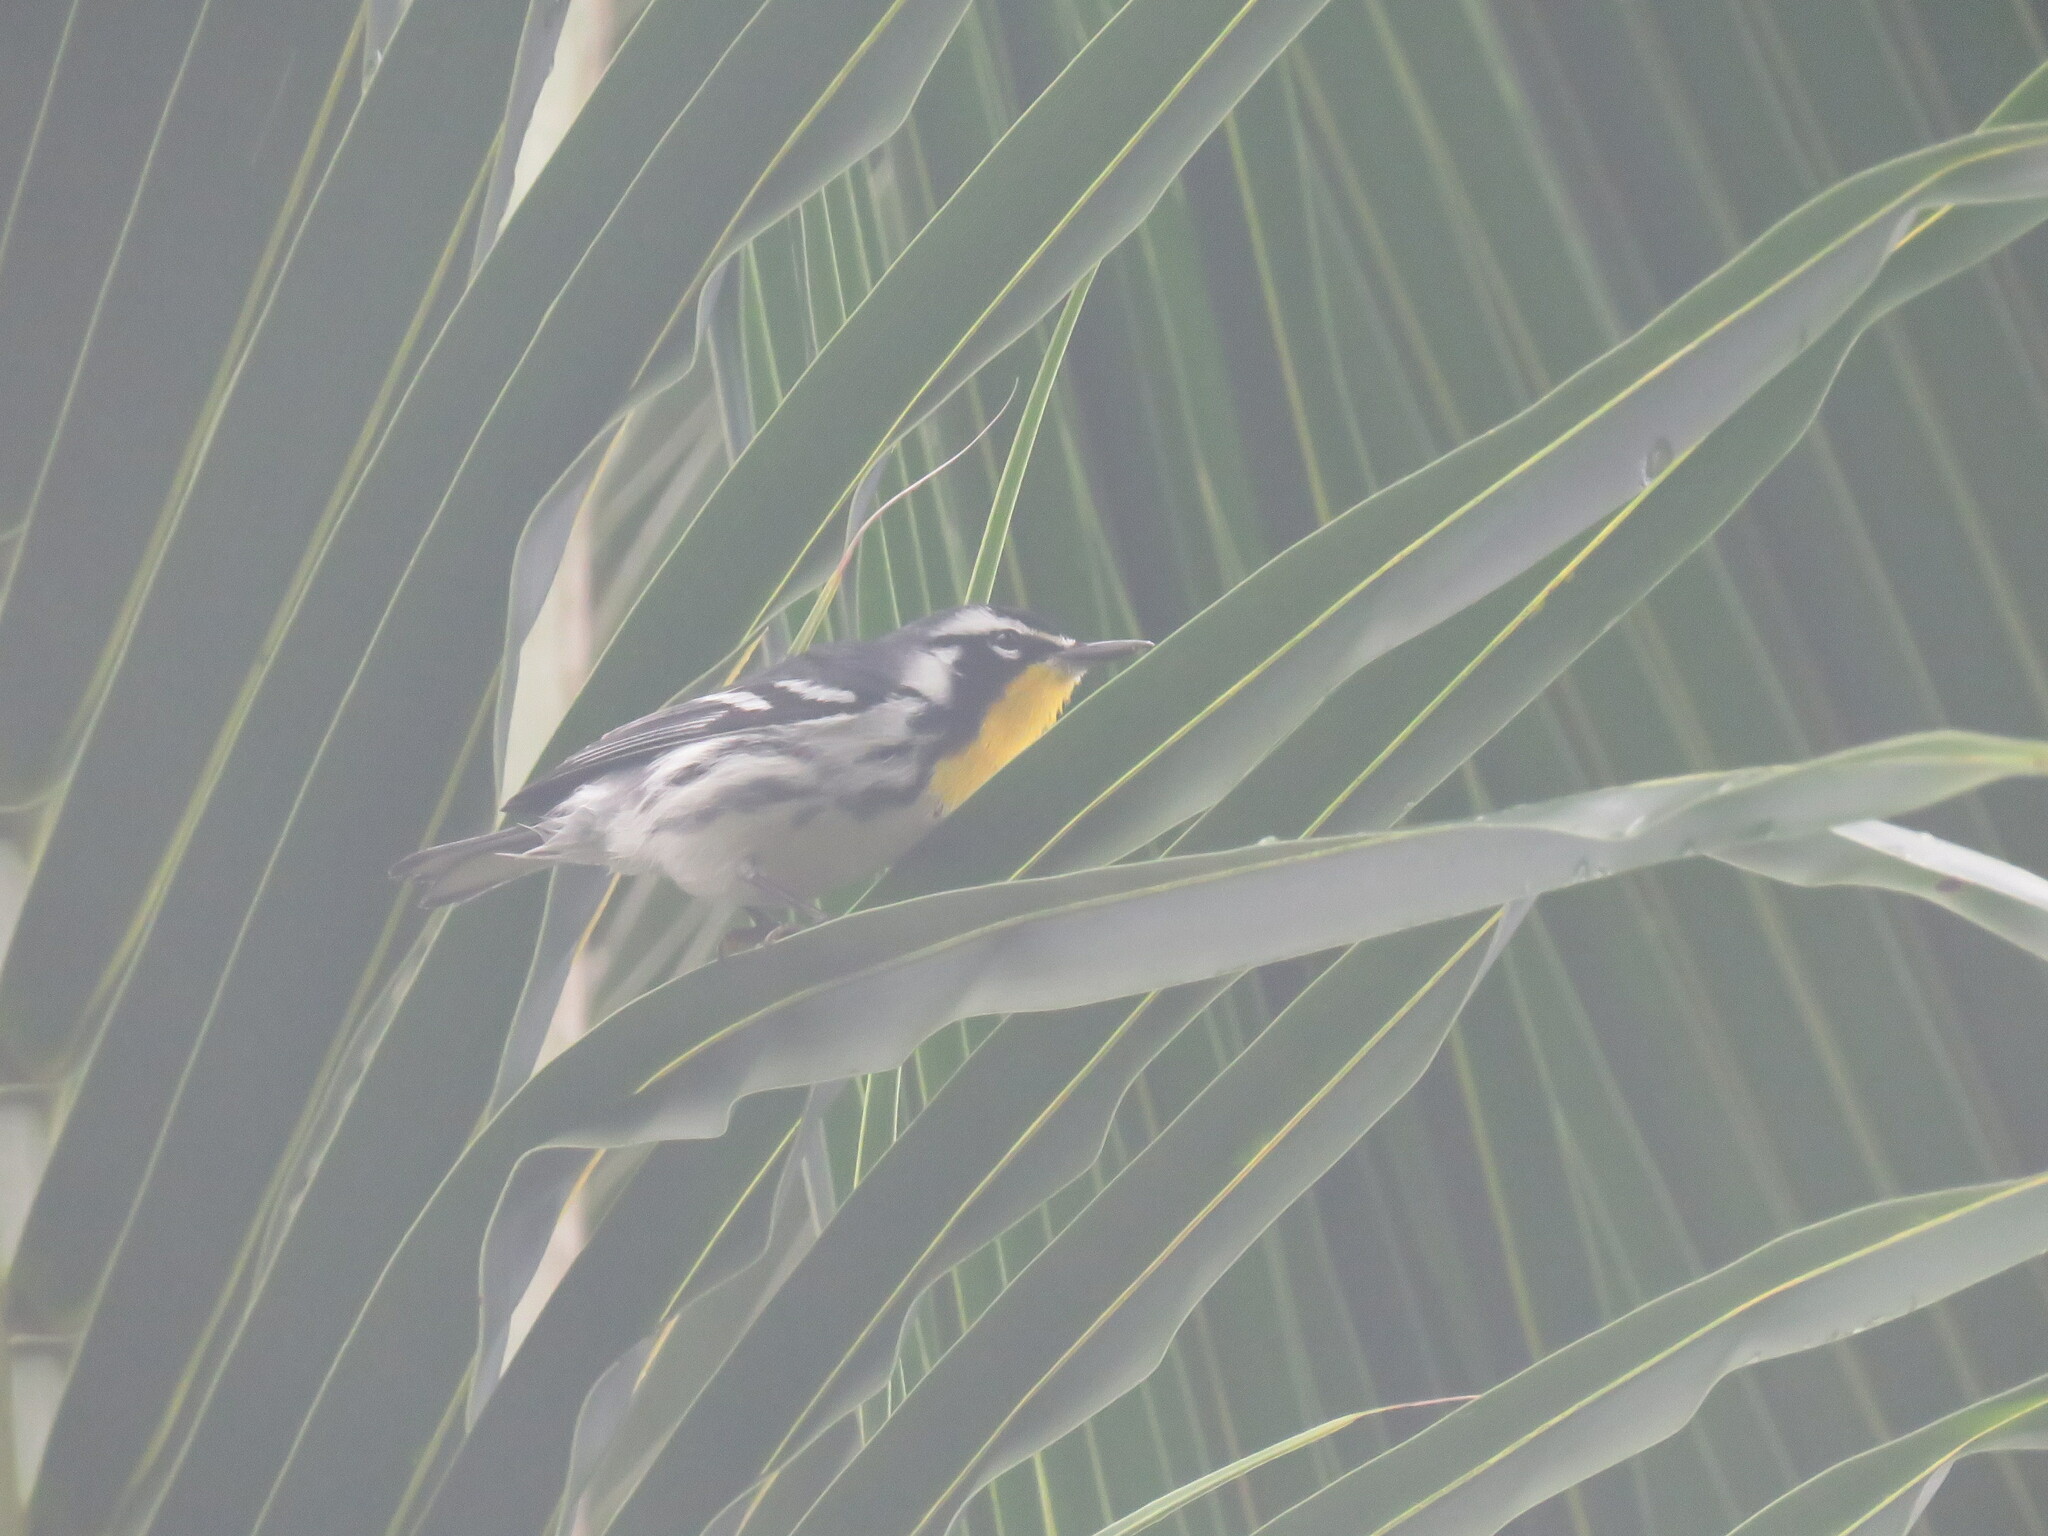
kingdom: Animalia
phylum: Chordata
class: Aves
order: Passeriformes
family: Parulidae
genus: Setophaga
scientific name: Setophaga dominica
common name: Yellow-throated warbler
